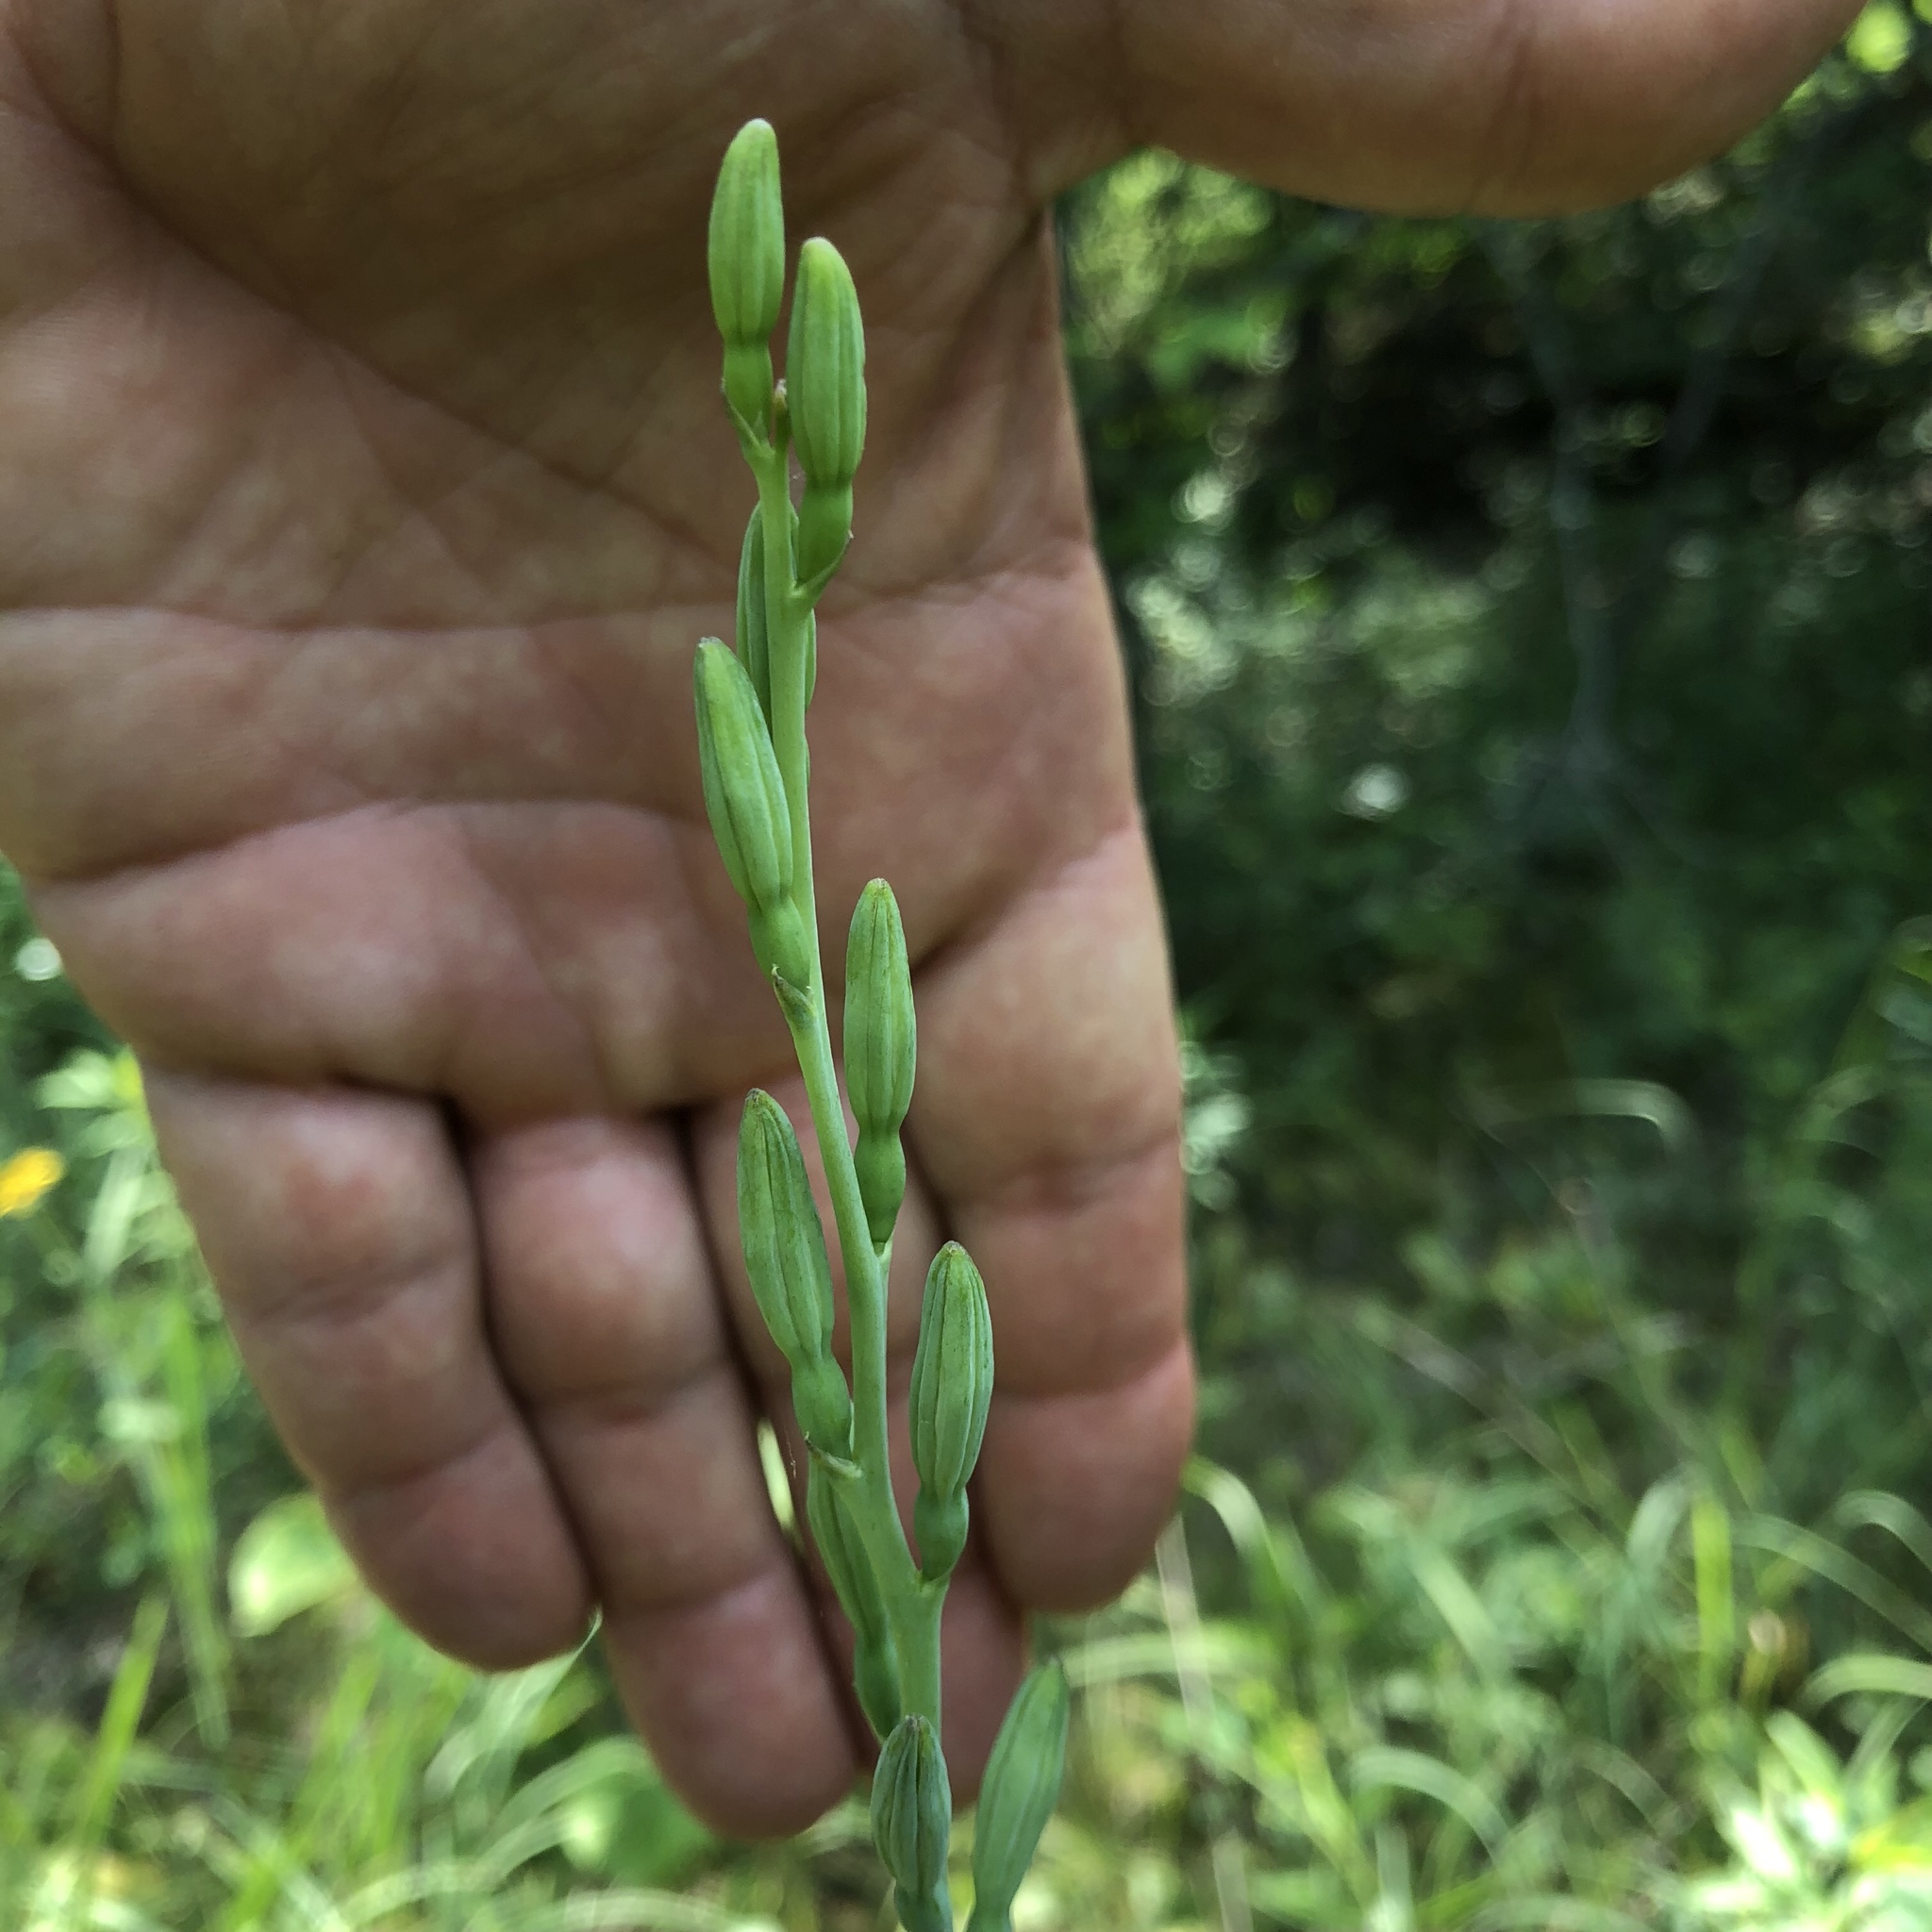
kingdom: Plantae
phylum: Tracheophyta
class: Liliopsida
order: Asparagales
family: Asparagaceae
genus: Agave
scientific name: Agave virginica
